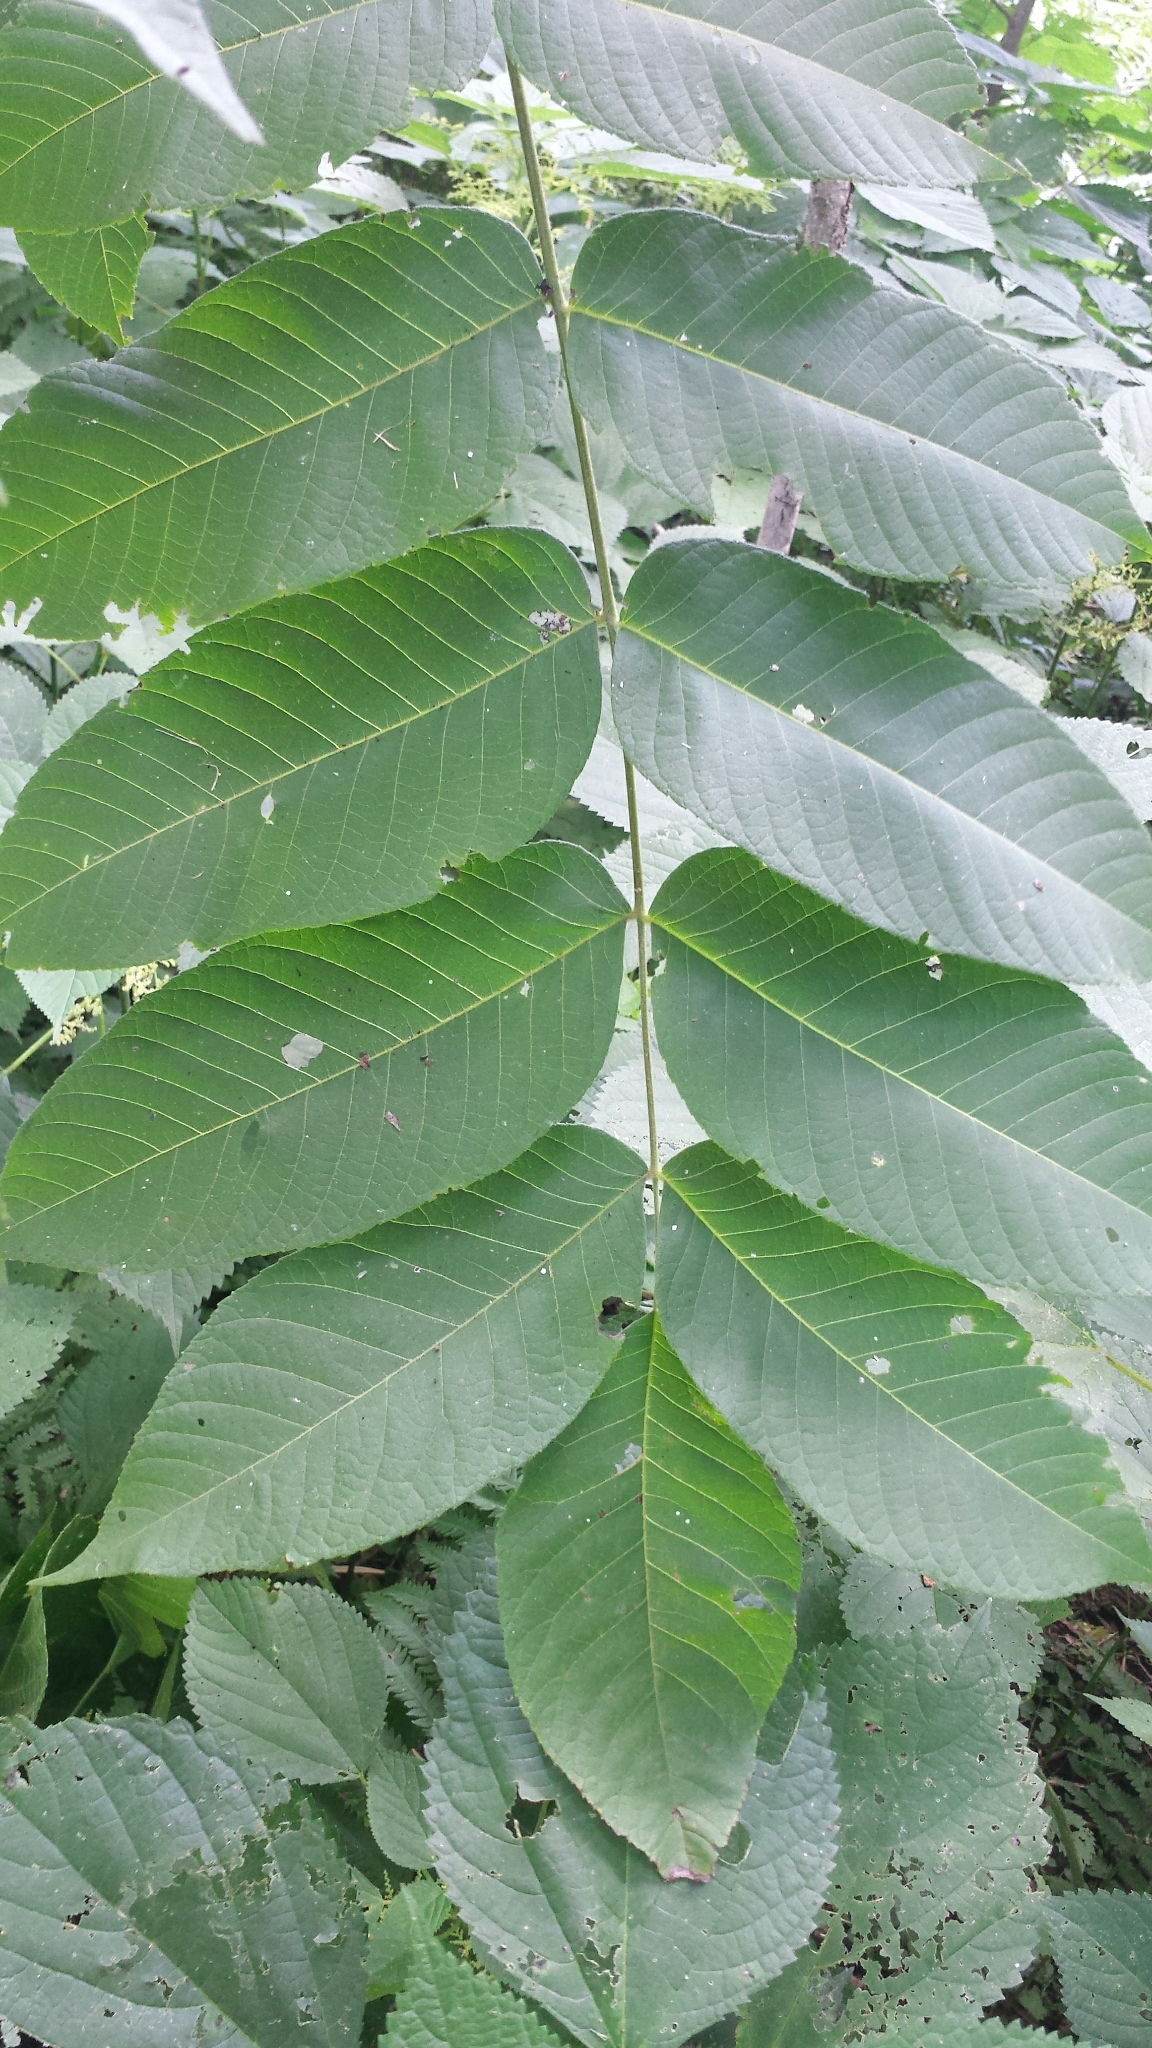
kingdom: Plantae
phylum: Tracheophyta
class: Magnoliopsida
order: Fagales
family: Juglandaceae
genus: Juglans
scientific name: Juglans cinerea
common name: Butternut
